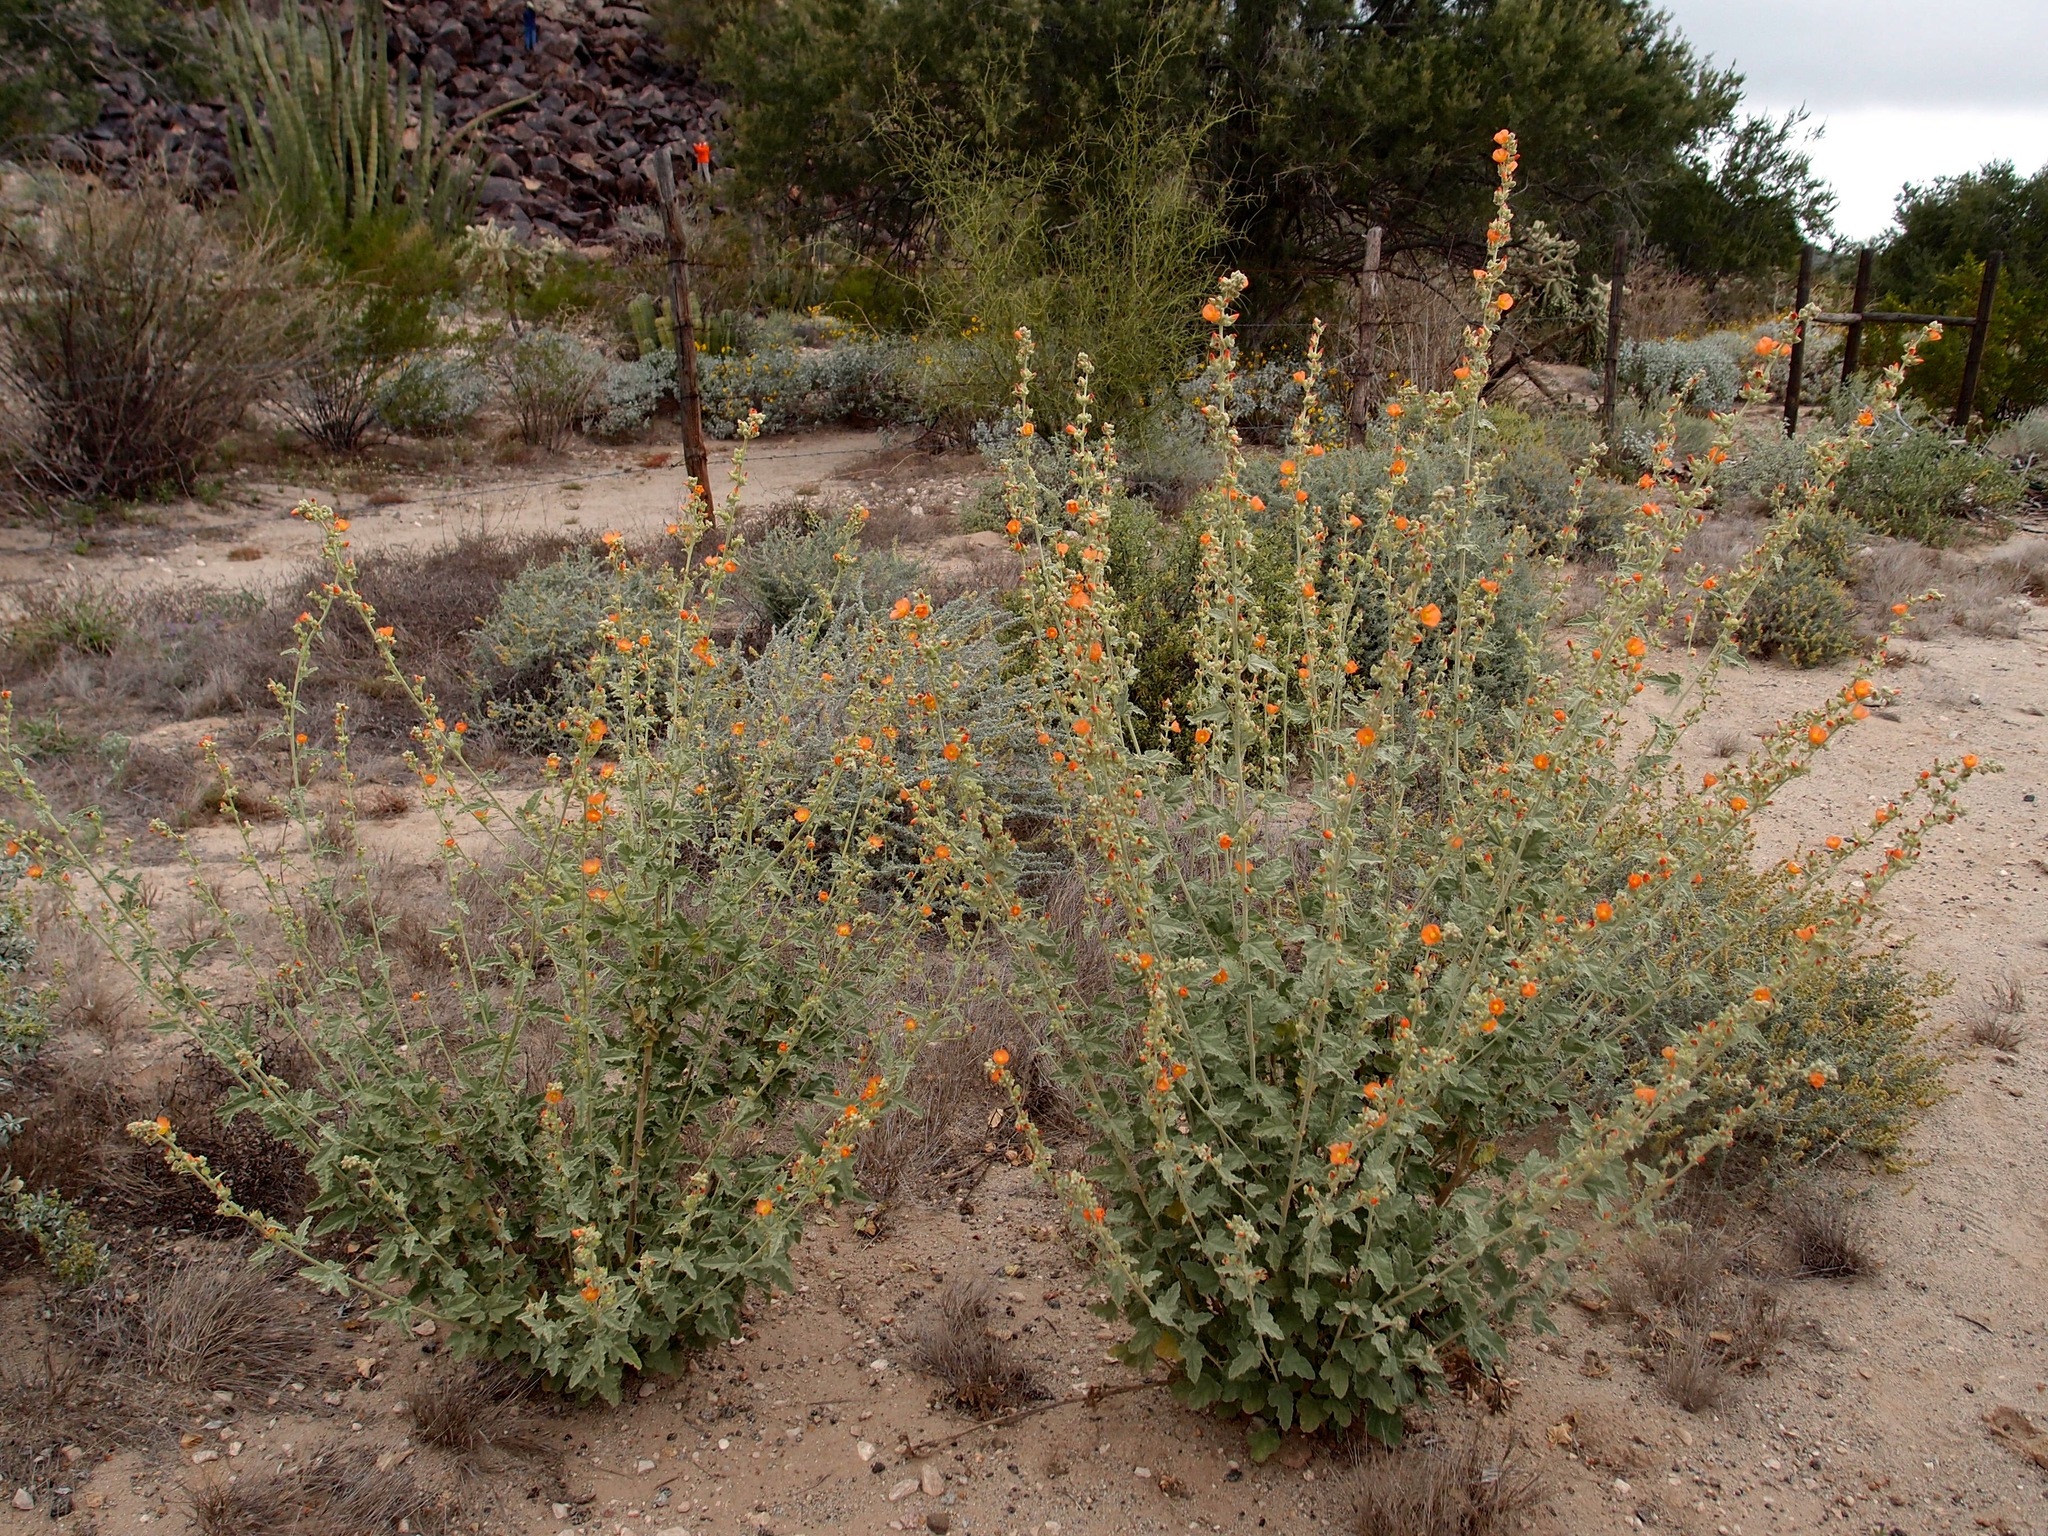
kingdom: Plantae
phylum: Tracheophyta
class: Magnoliopsida
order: Malvales
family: Malvaceae
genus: Sphaeralcea
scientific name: Sphaeralcea emoryi
